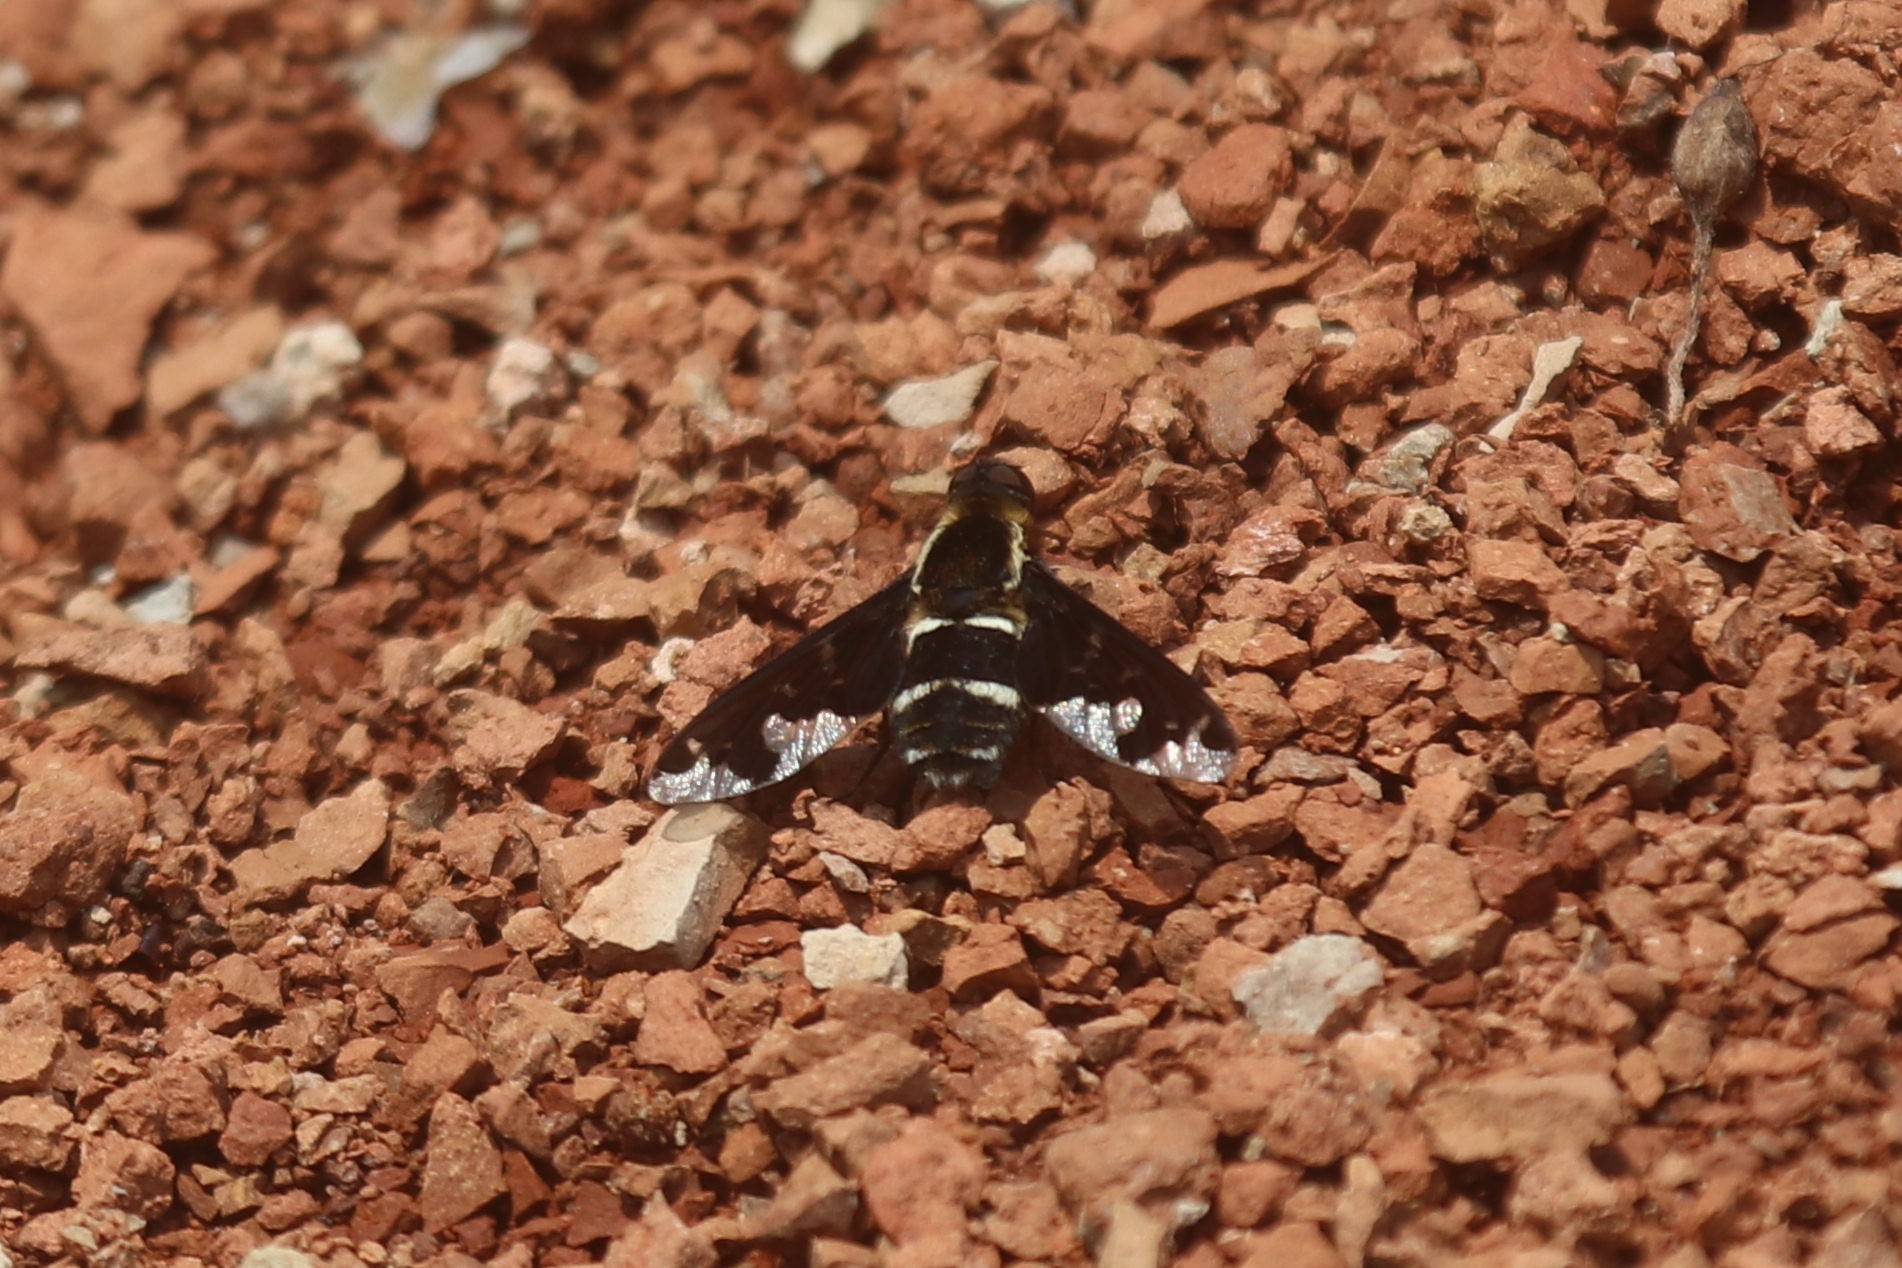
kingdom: Animalia
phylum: Arthropoda
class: Insecta
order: Diptera
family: Bombyliidae
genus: Hemipenthes
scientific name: Hemipenthes maura
